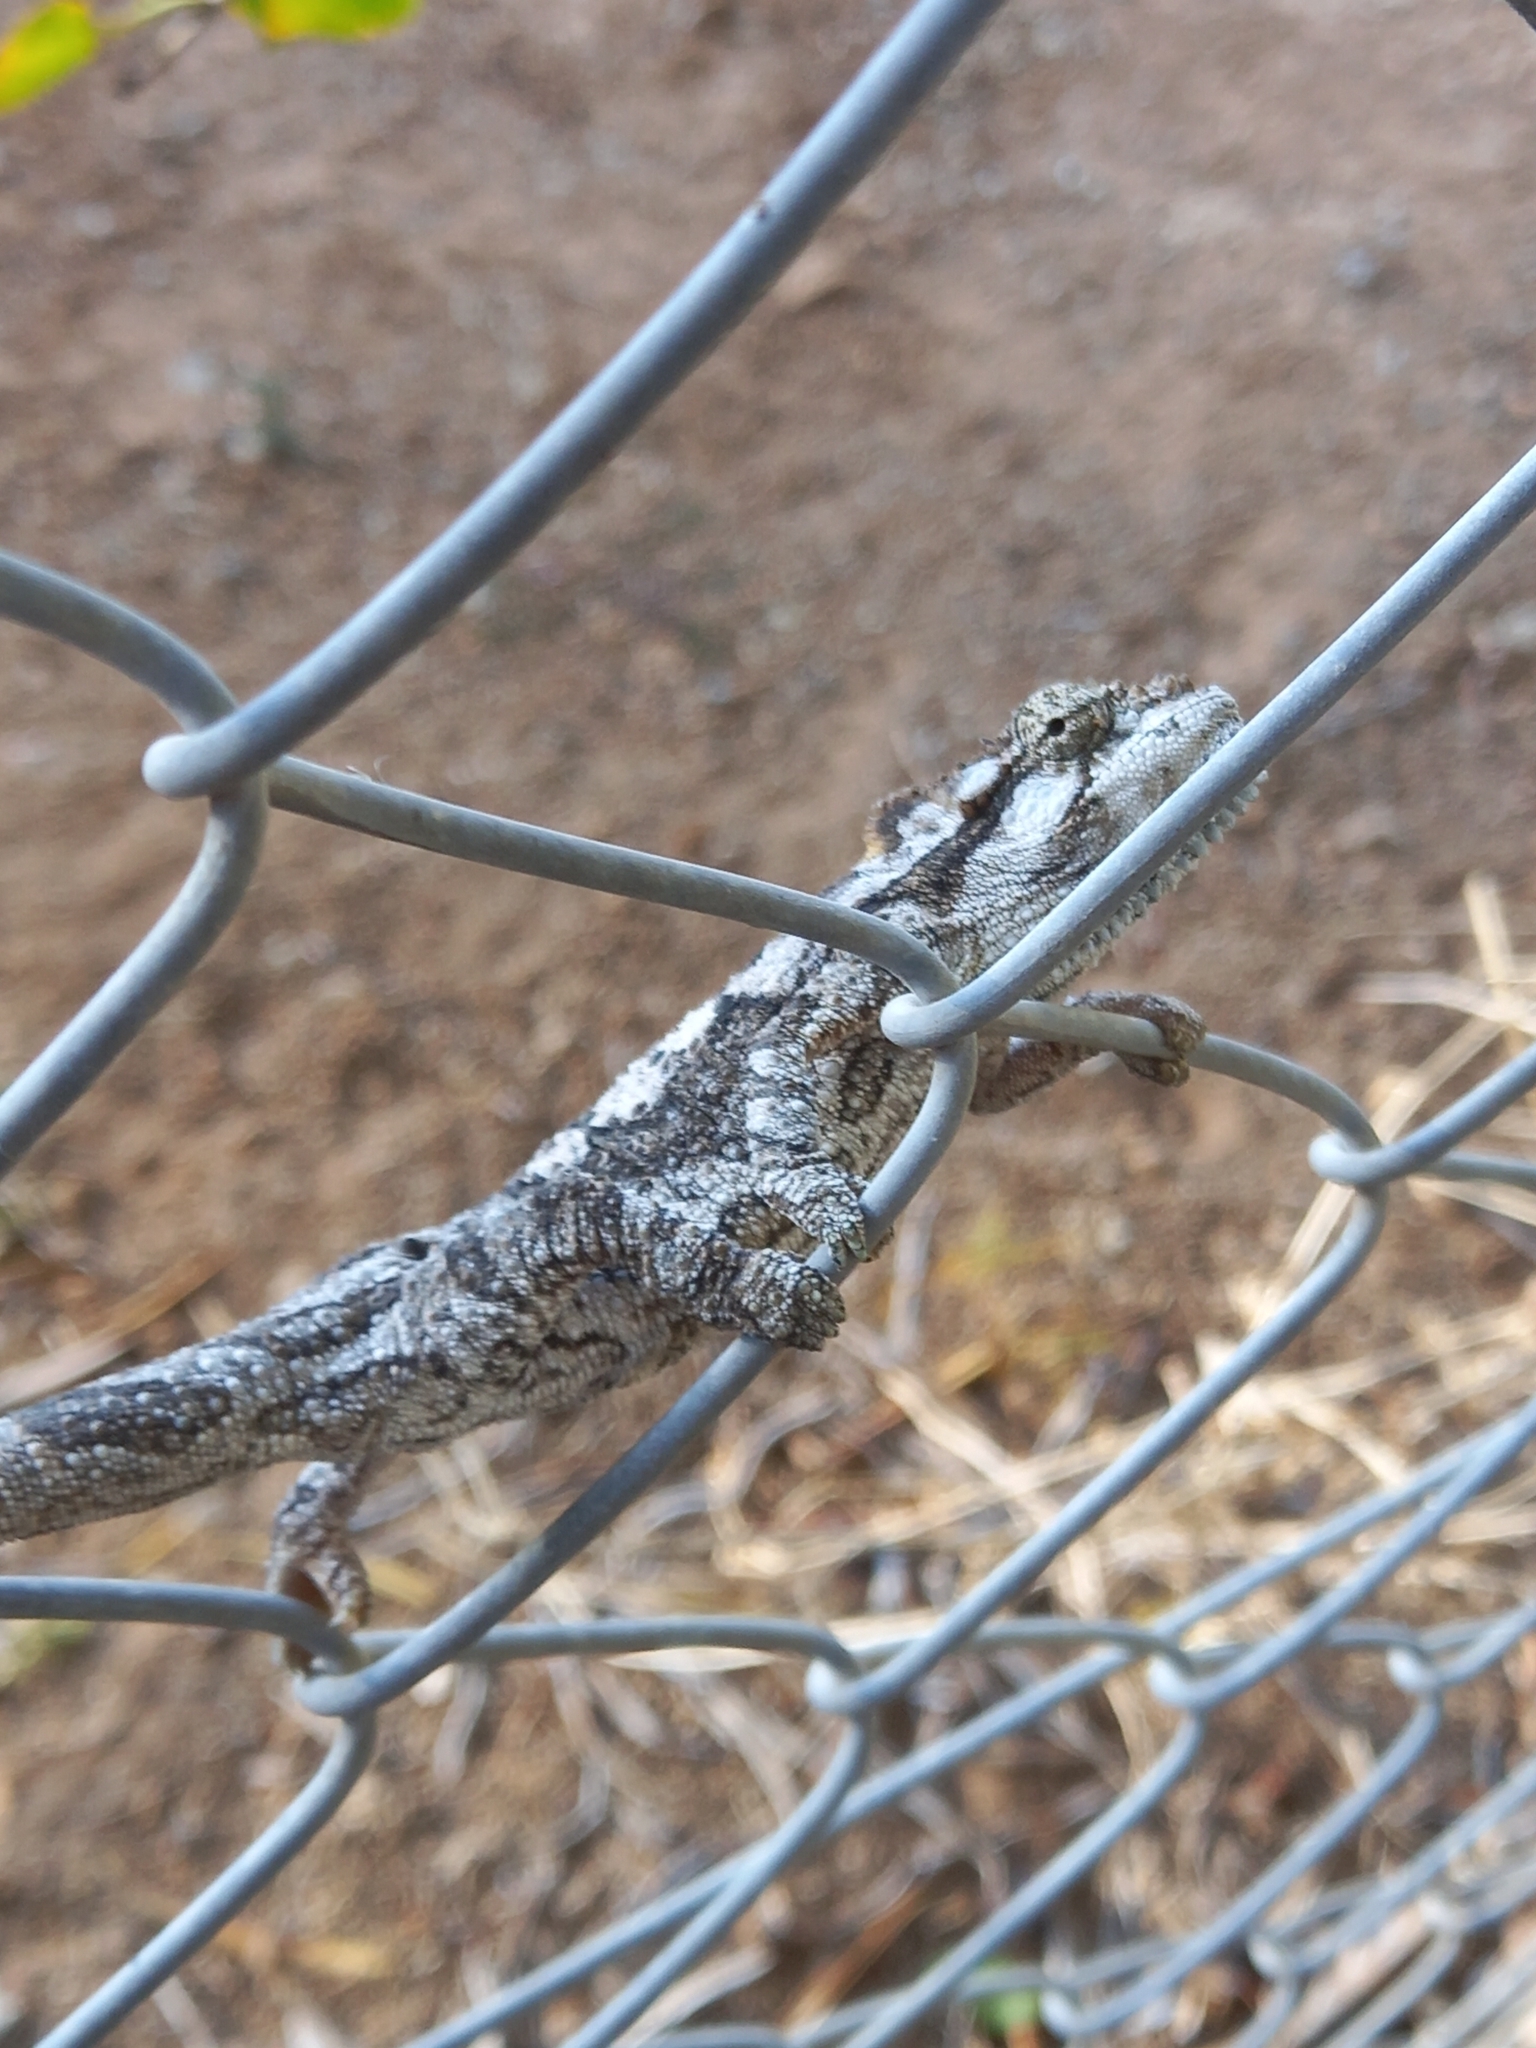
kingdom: Animalia
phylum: Chordata
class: Squamata
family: Chamaeleonidae
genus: Bradypodion
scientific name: Bradypodion ventrale
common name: Eastern cape dwarf chameleon
